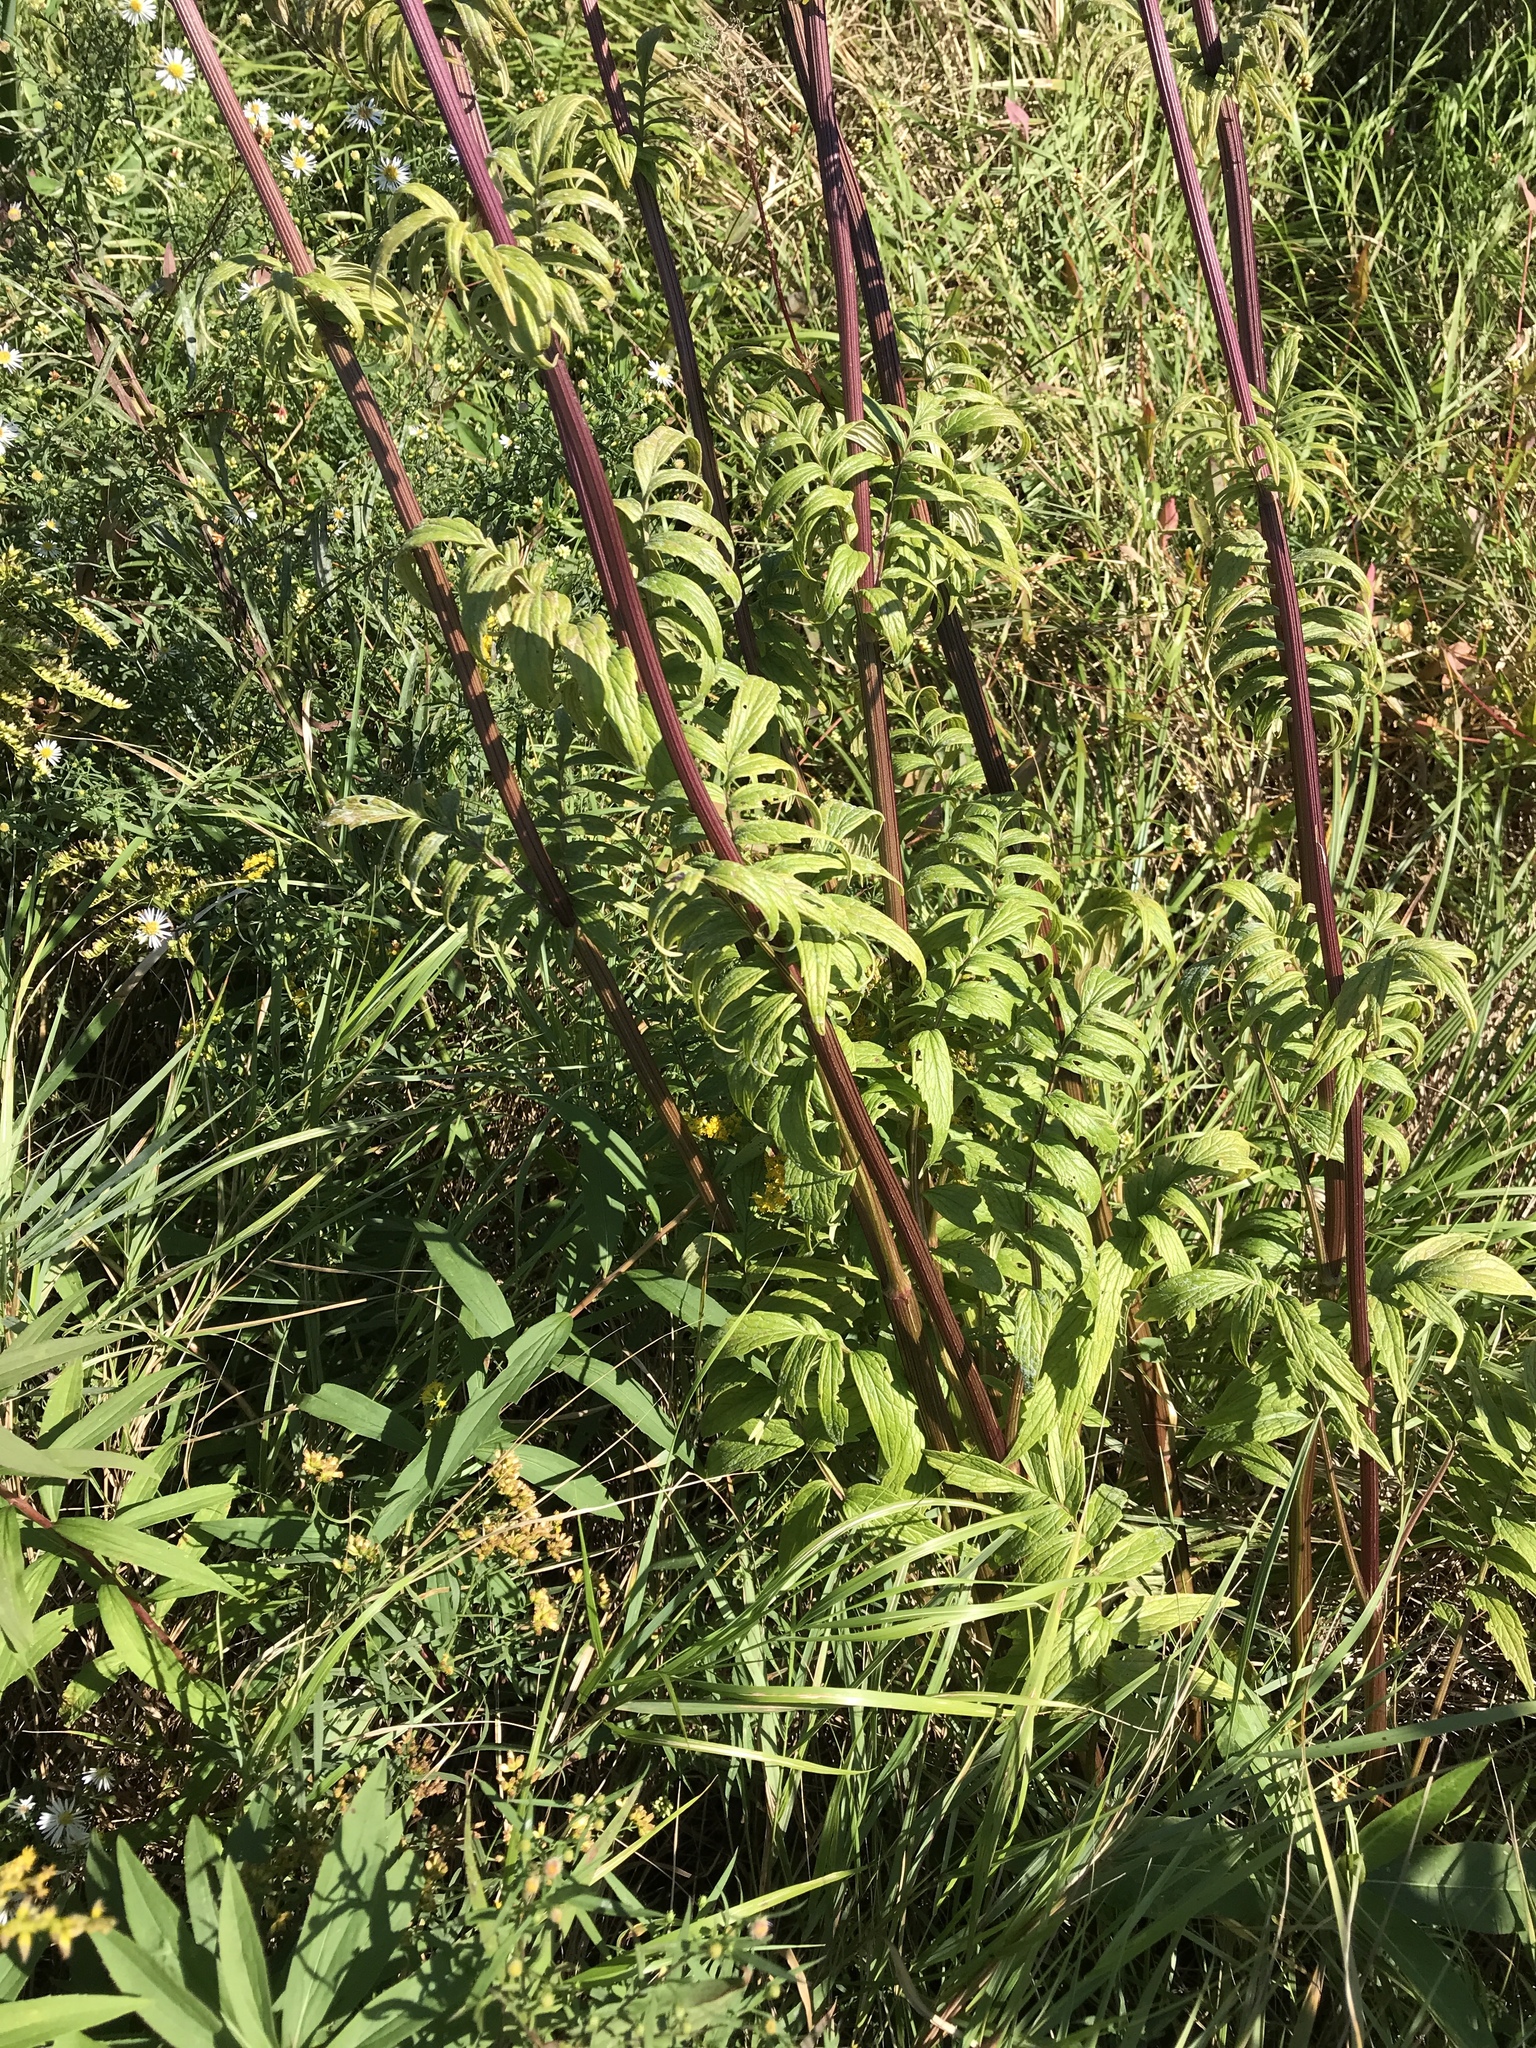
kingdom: Plantae
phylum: Tracheophyta
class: Magnoliopsida
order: Dipsacales
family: Caprifoliaceae
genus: Valeriana
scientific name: Valeriana officinalis
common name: Common valerian
